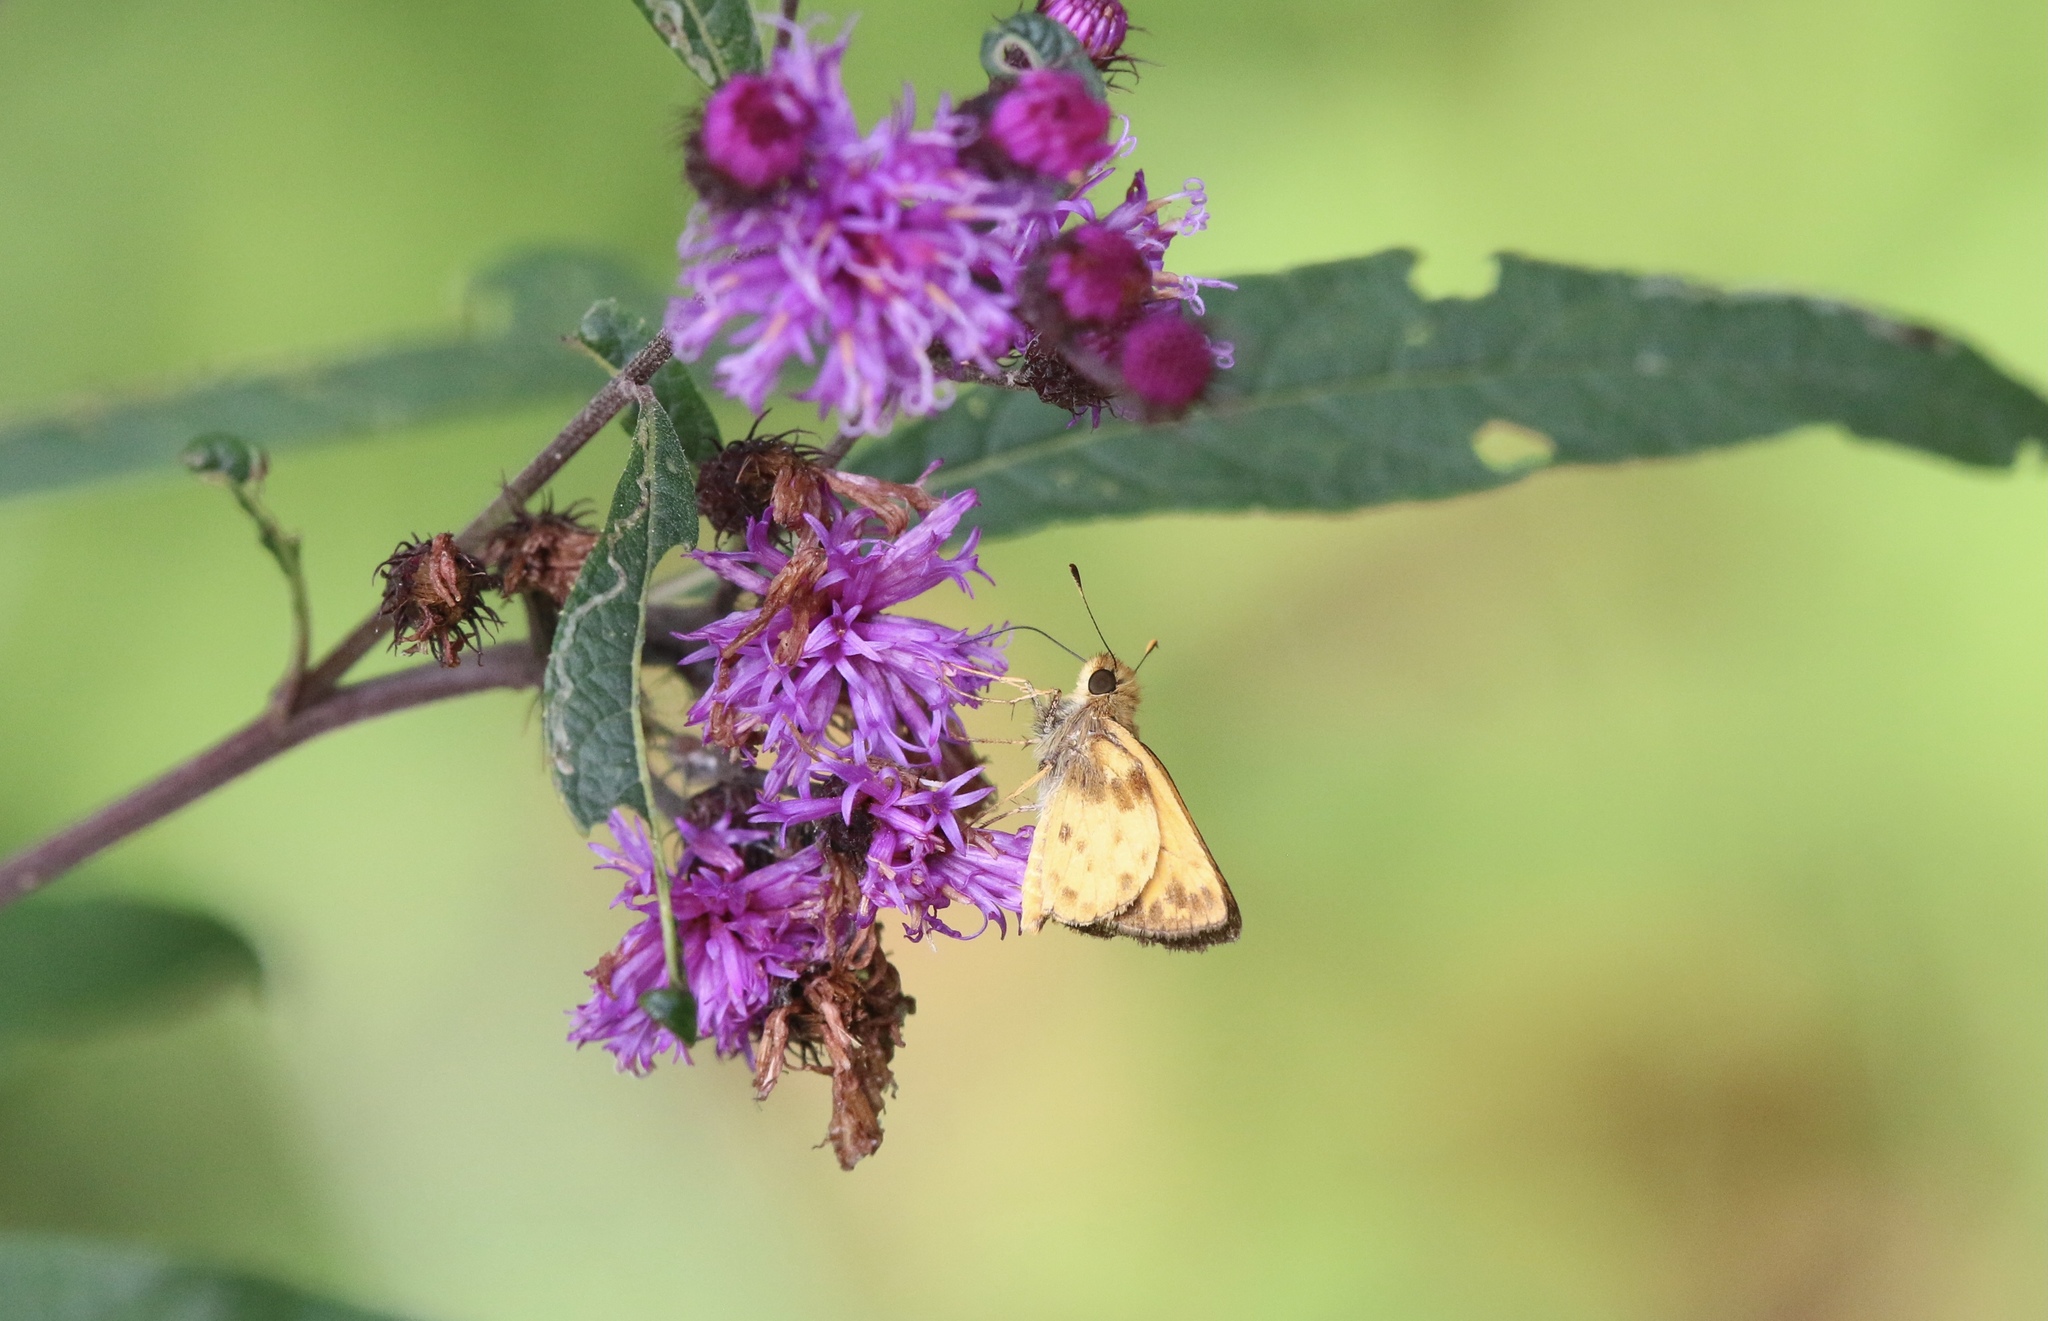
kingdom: Animalia
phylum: Arthropoda
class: Insecta
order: Lepidoptera
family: Hesperiidae
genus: Lon
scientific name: Lon zabulon
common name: Zabulon skipper
